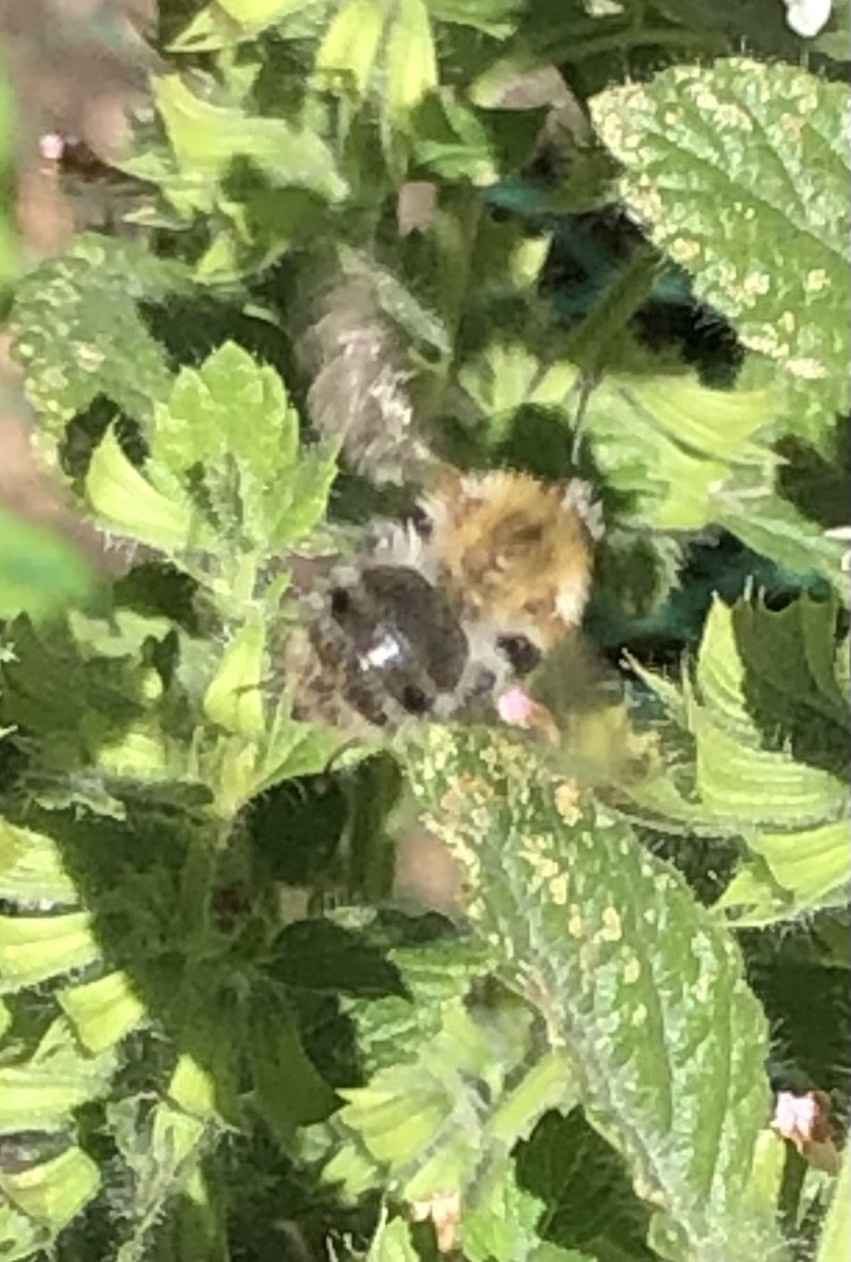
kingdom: Animalia
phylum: Arthropoda
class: Insecta
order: Hymenoptera
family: Apidae
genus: Bombus
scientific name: Bombus pascuorum
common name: Common carder bee
